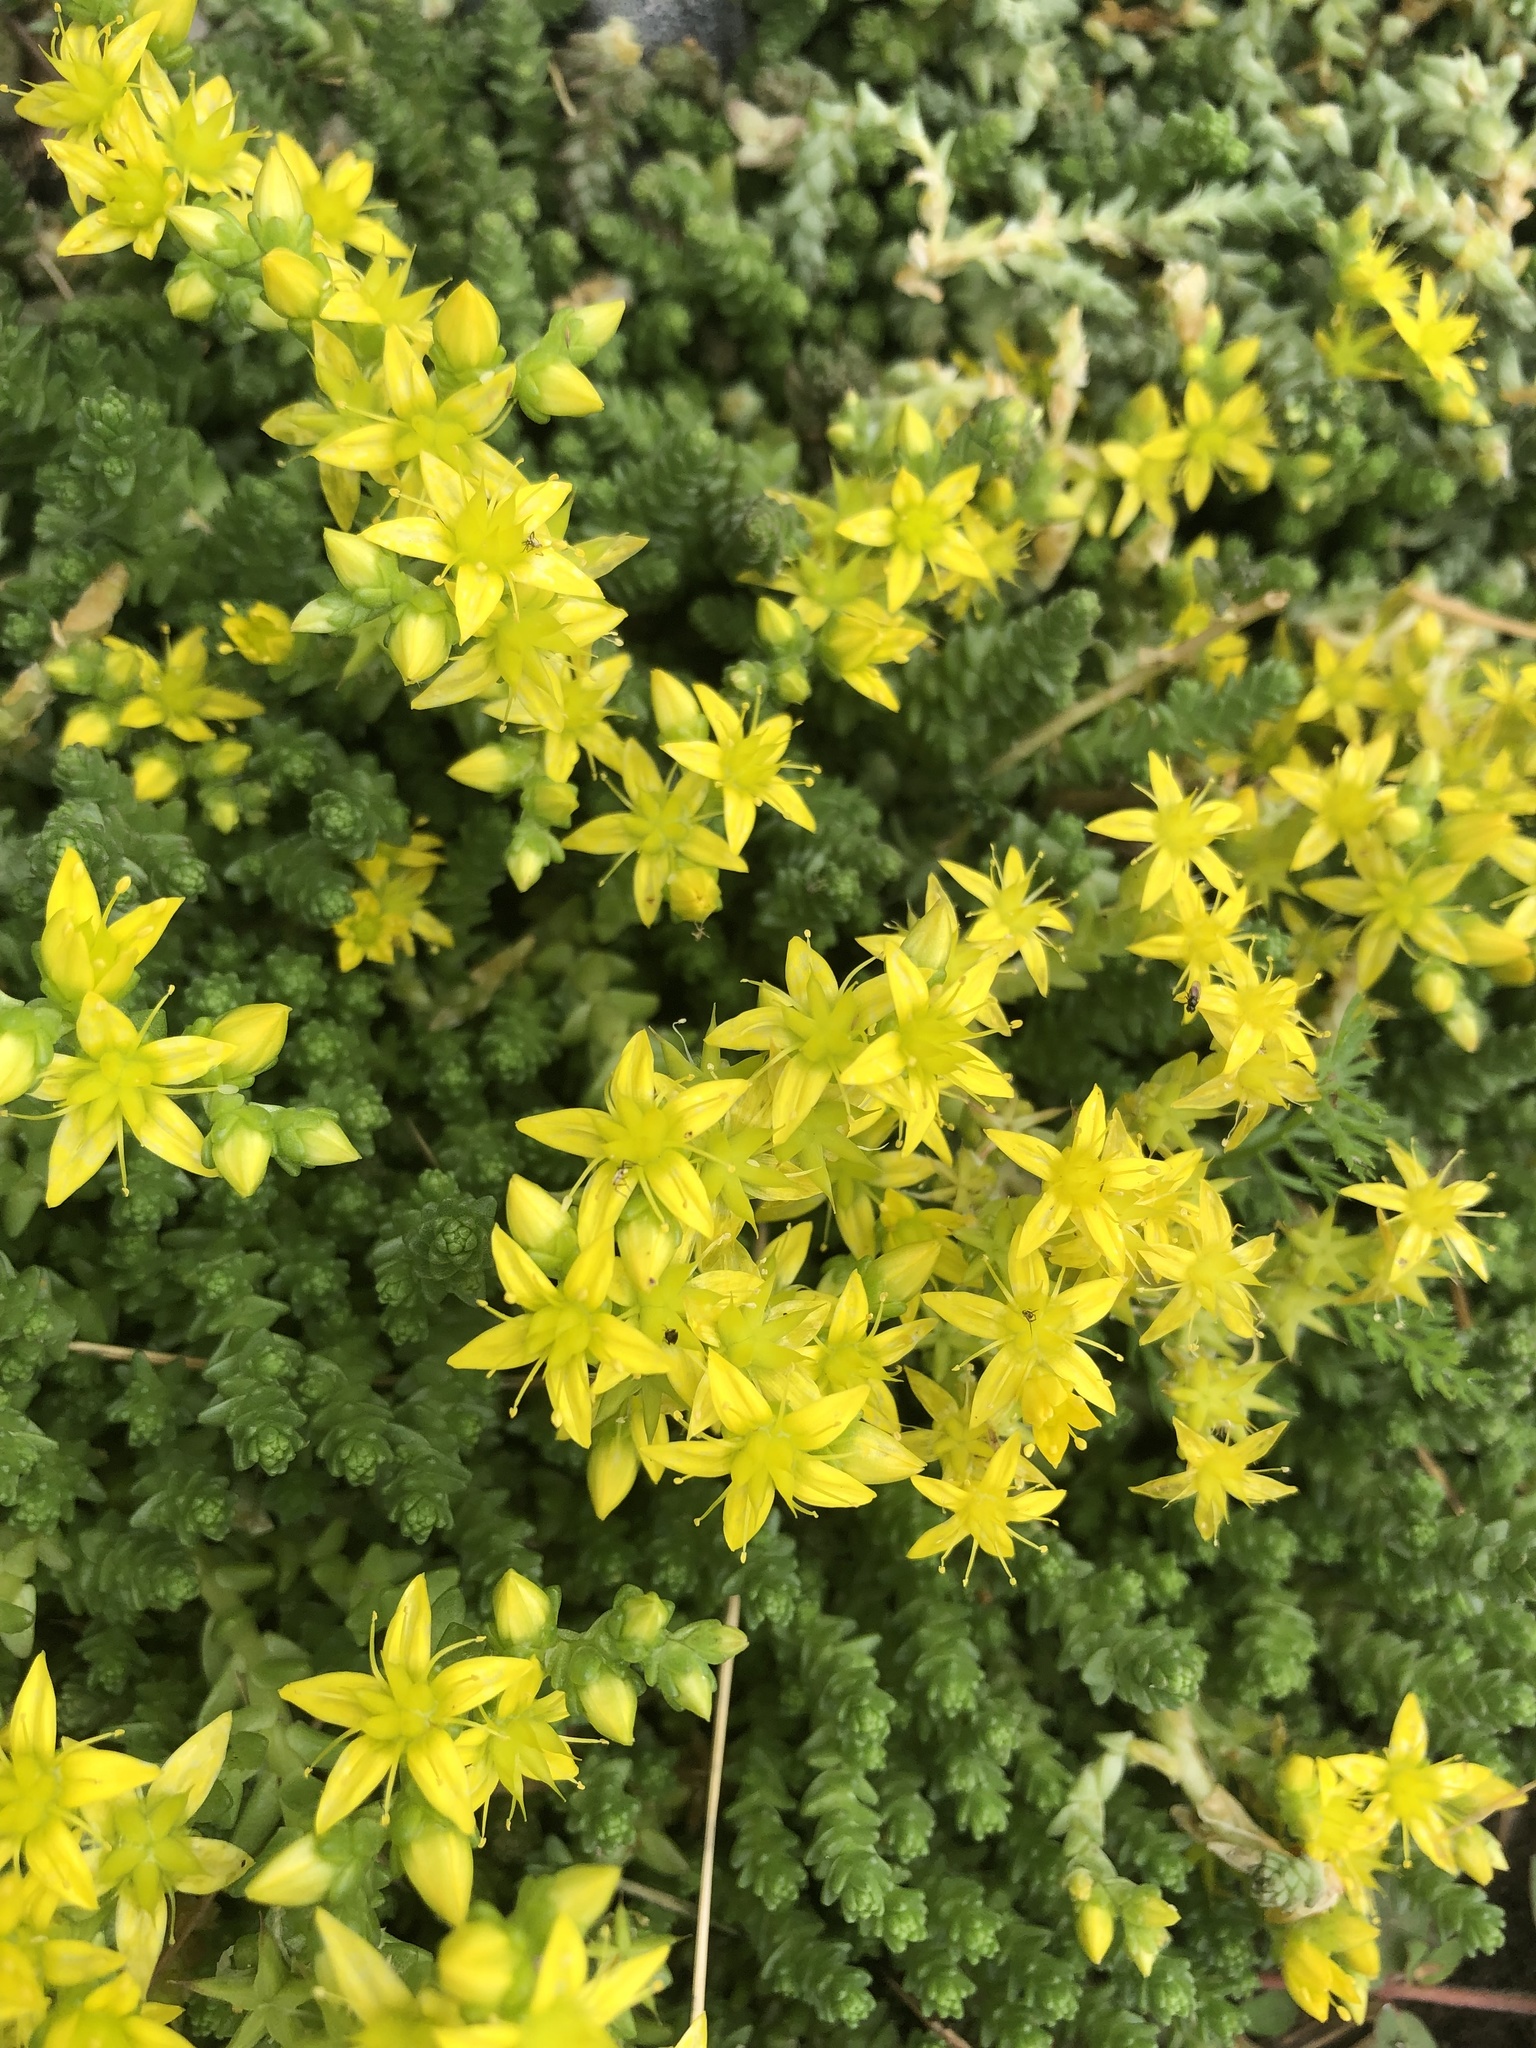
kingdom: Plantae
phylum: Tracheophyta
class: Magnoliopsida
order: Saxifragales
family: Crassulaceae
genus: Sedum
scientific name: Sedum acre
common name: Biting stonecrop
